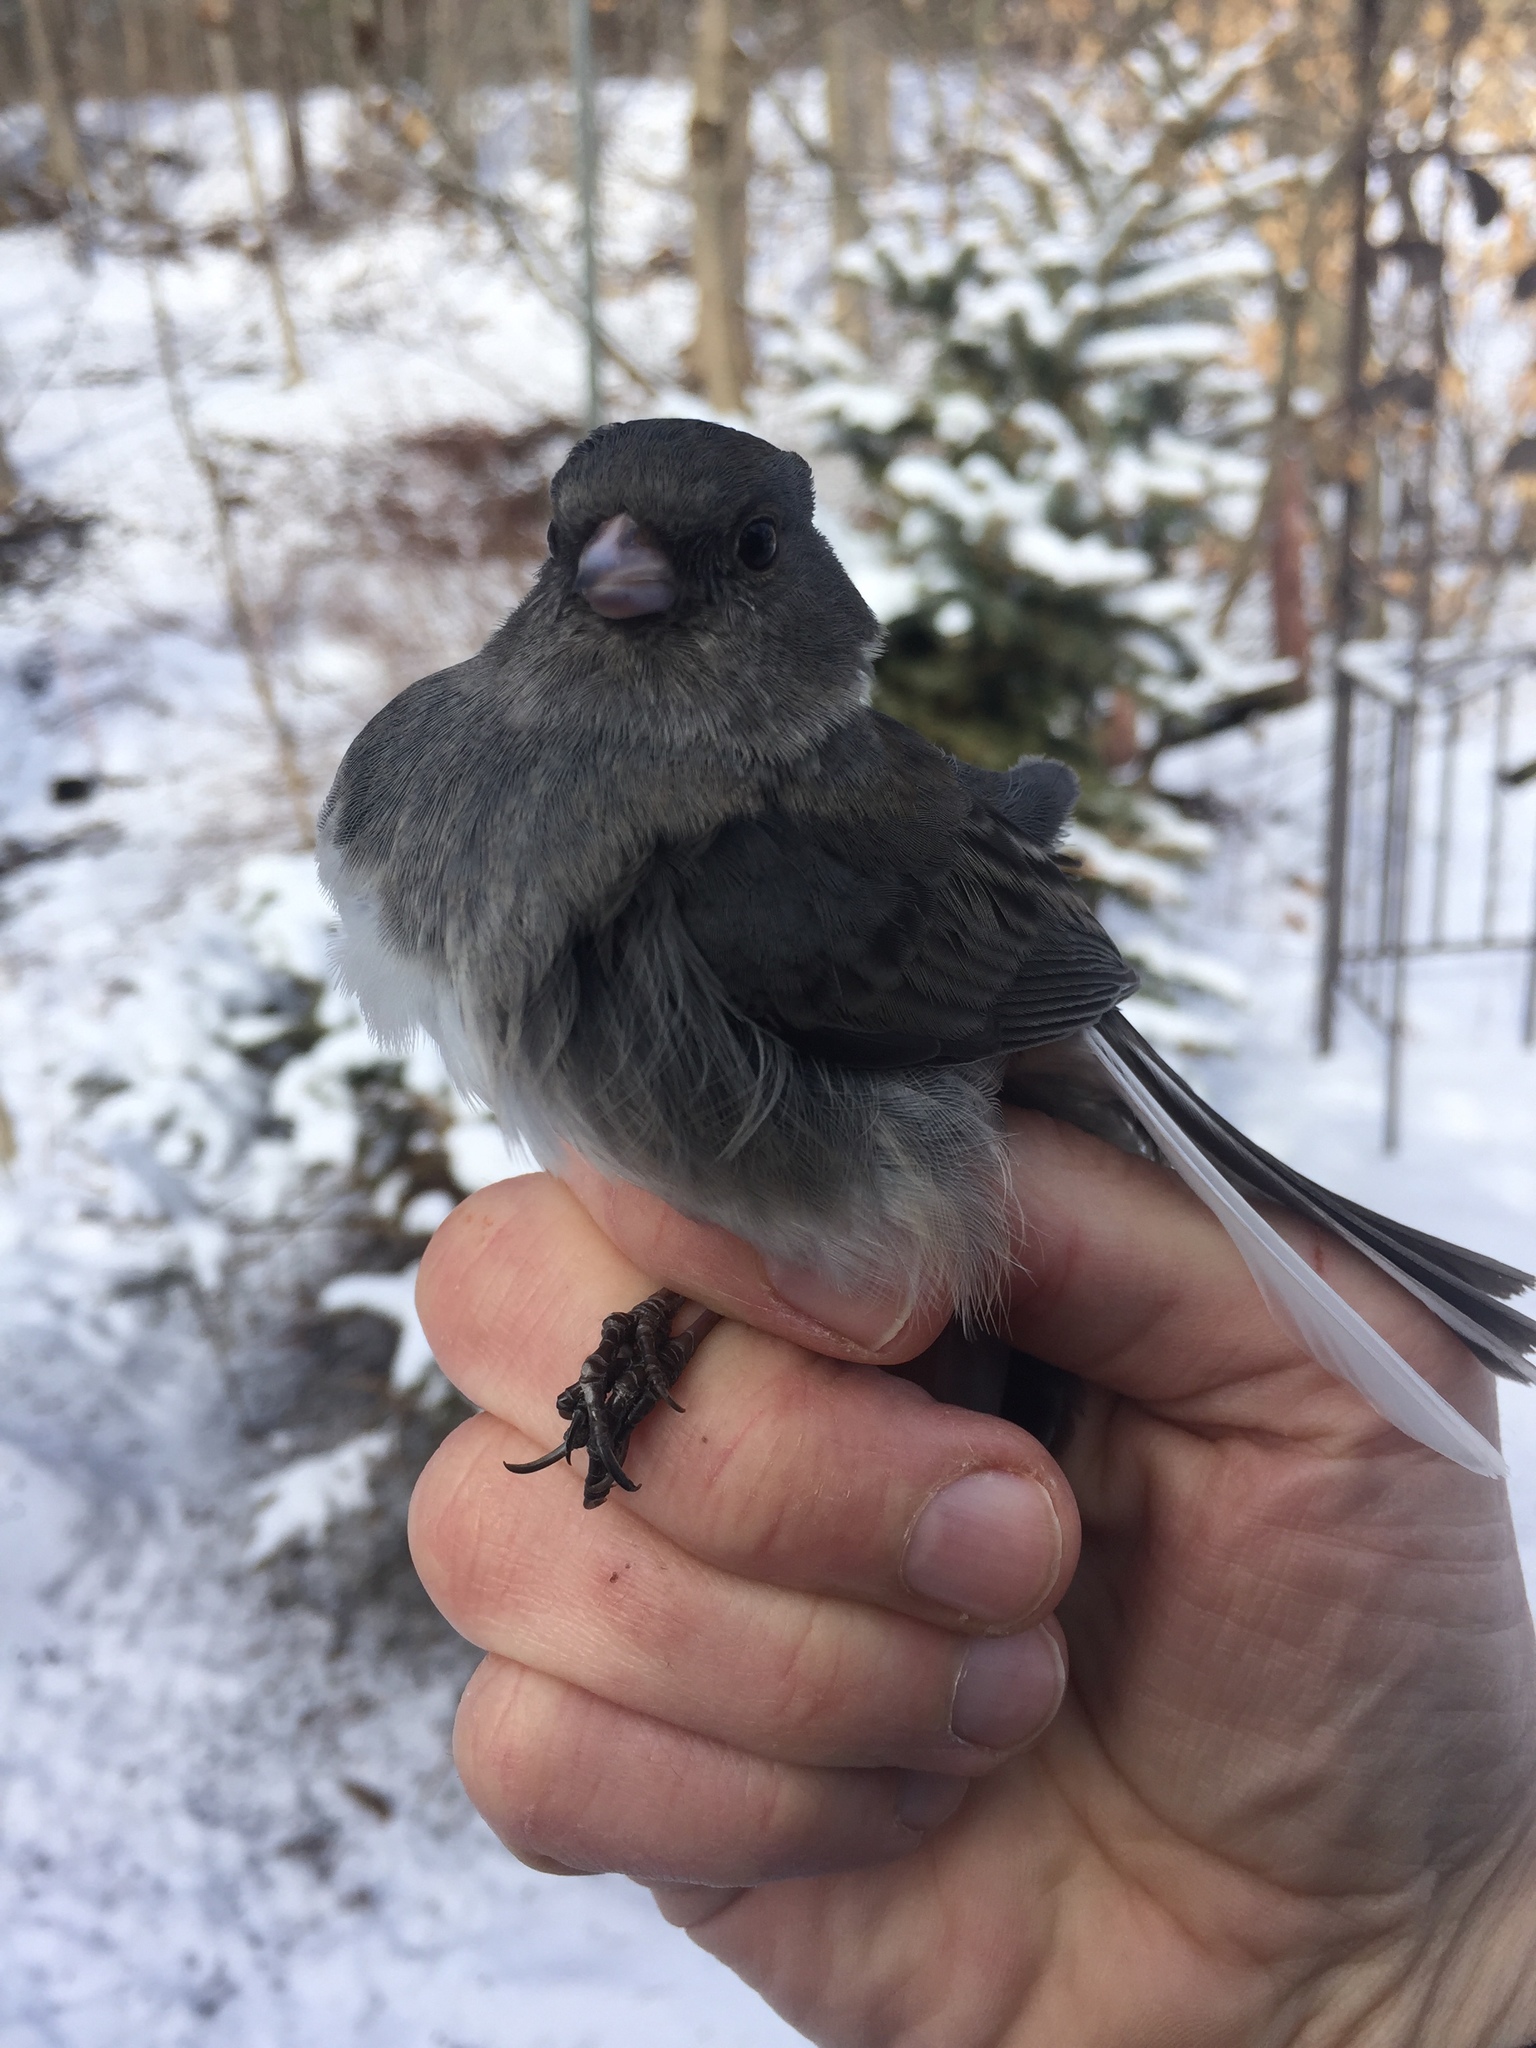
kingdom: Animalia
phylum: Chordata
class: Aves
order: Passeriformes
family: Passerellidae
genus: Junco
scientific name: Junco hyemalis
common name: Dark-eyed junco
